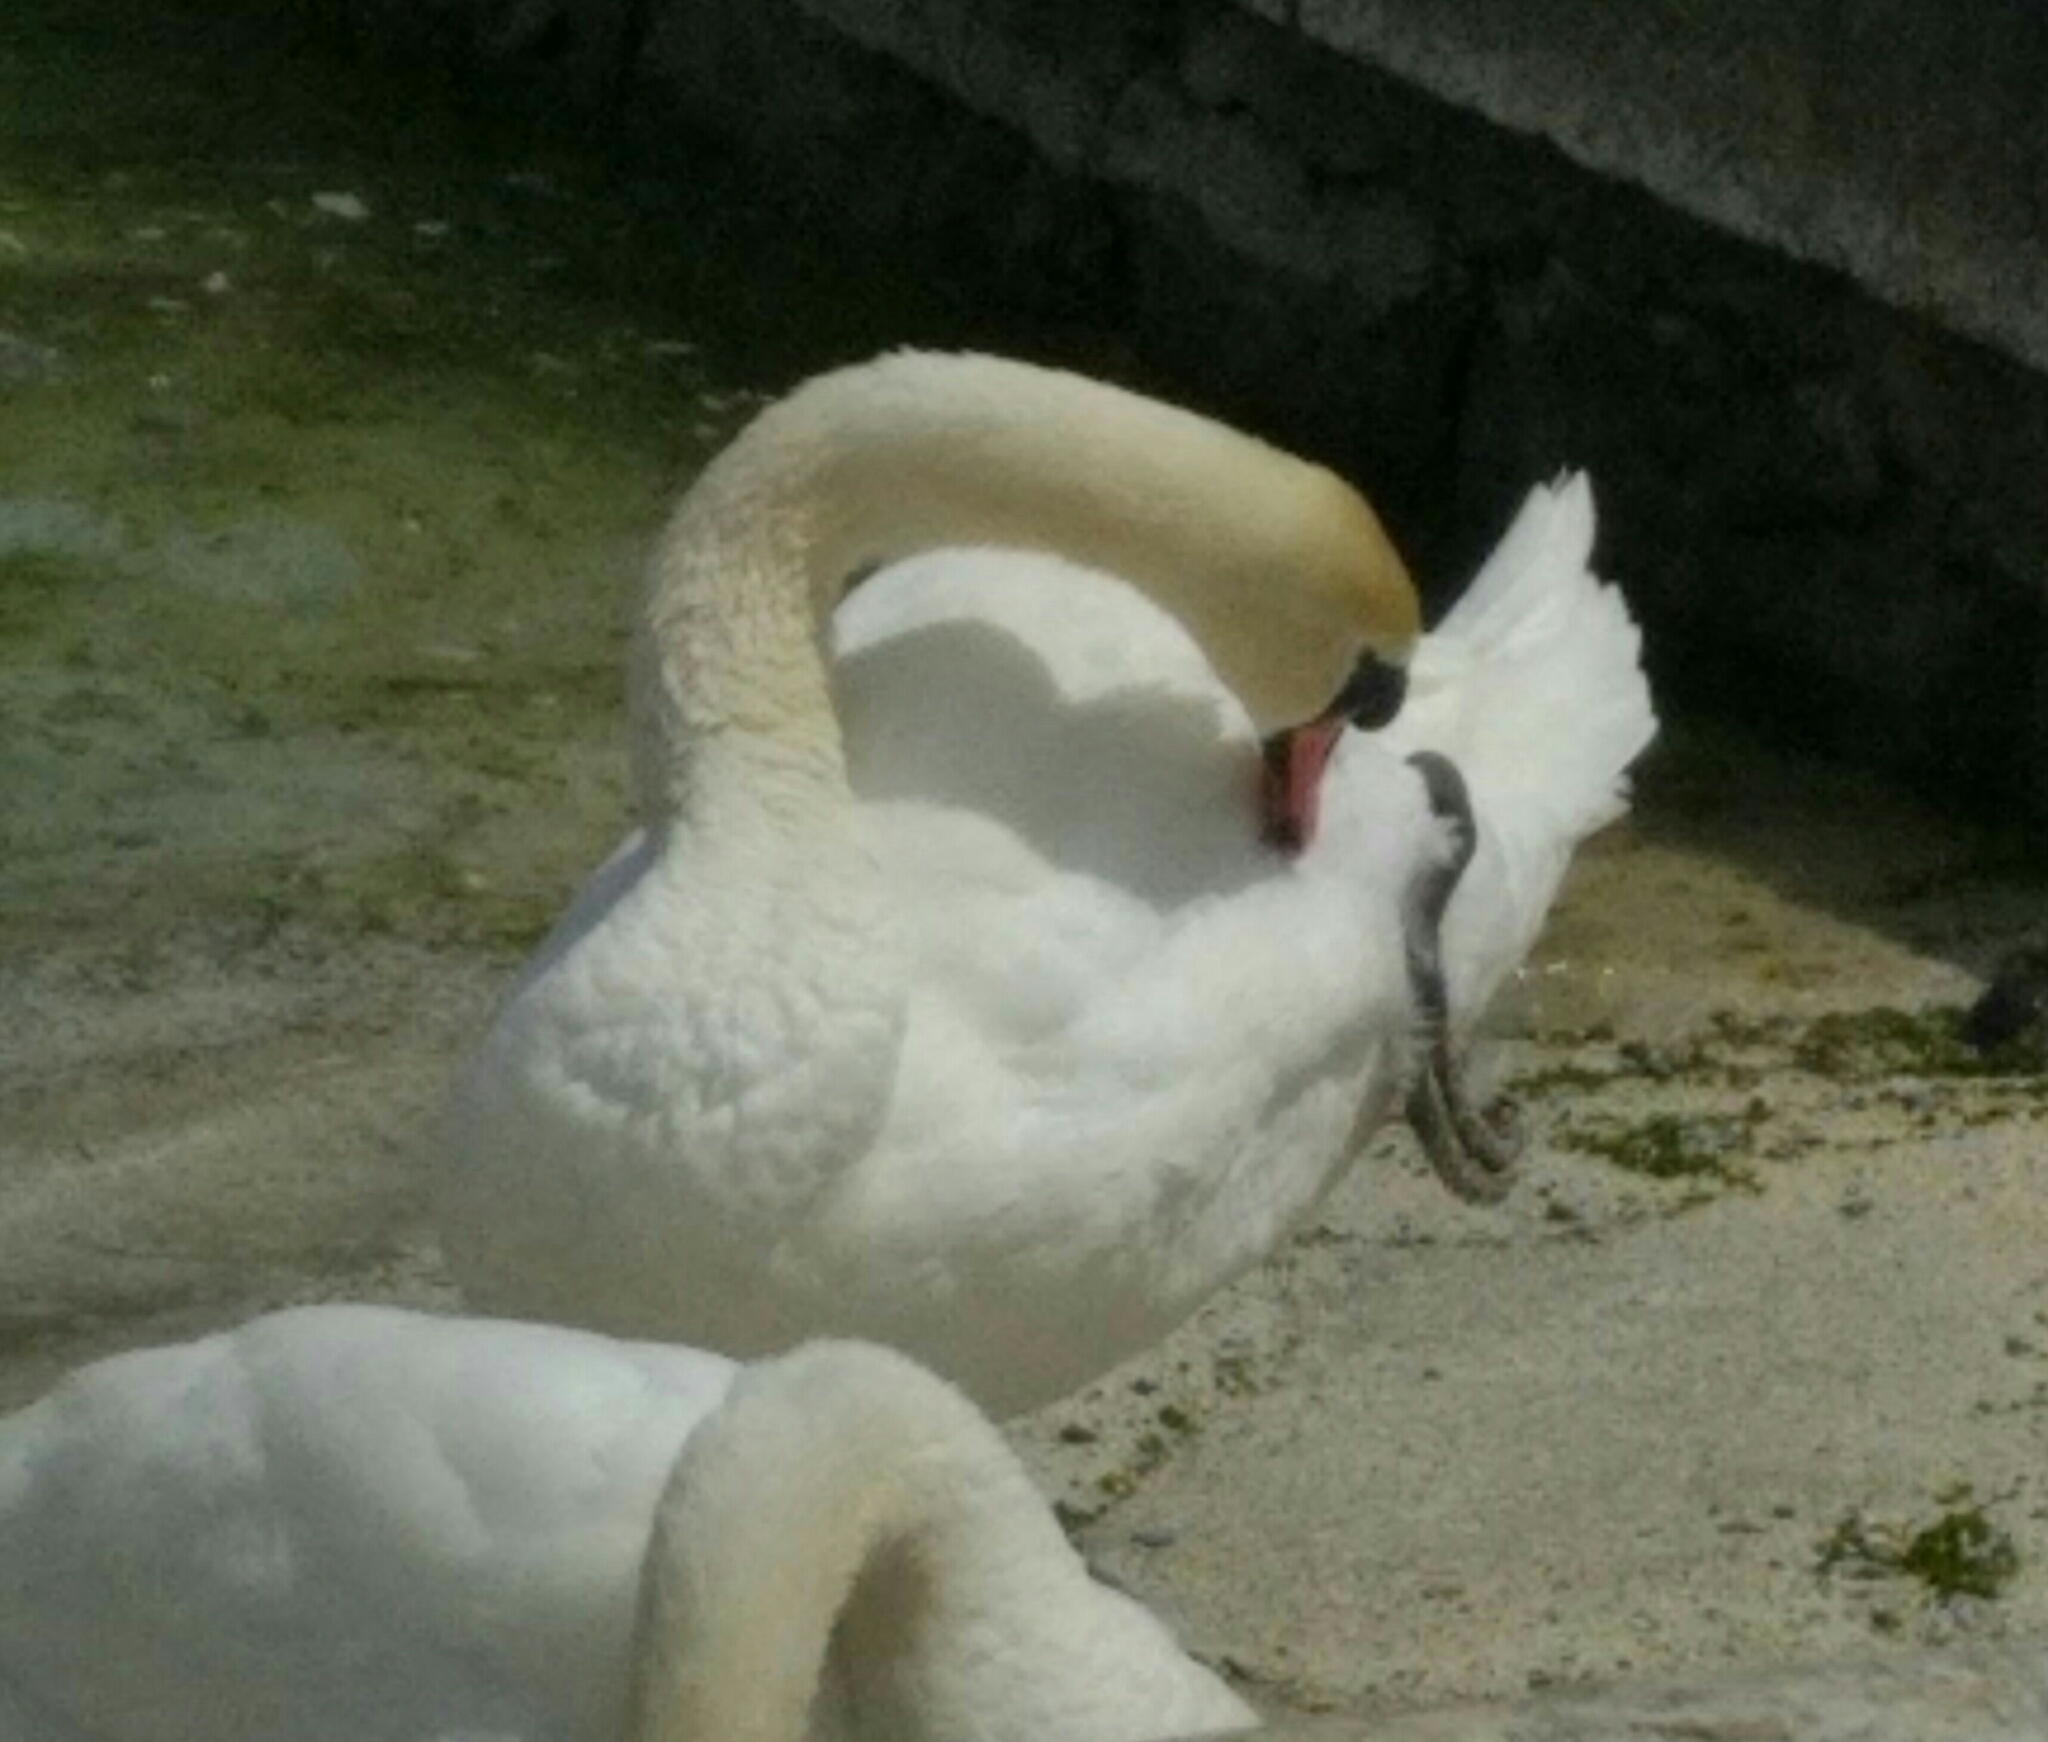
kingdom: Animalia
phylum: Chordata
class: Aves
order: Anseriformes
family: Anatidae
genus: Cygnus
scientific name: Cygnus olor
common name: Mute swan
